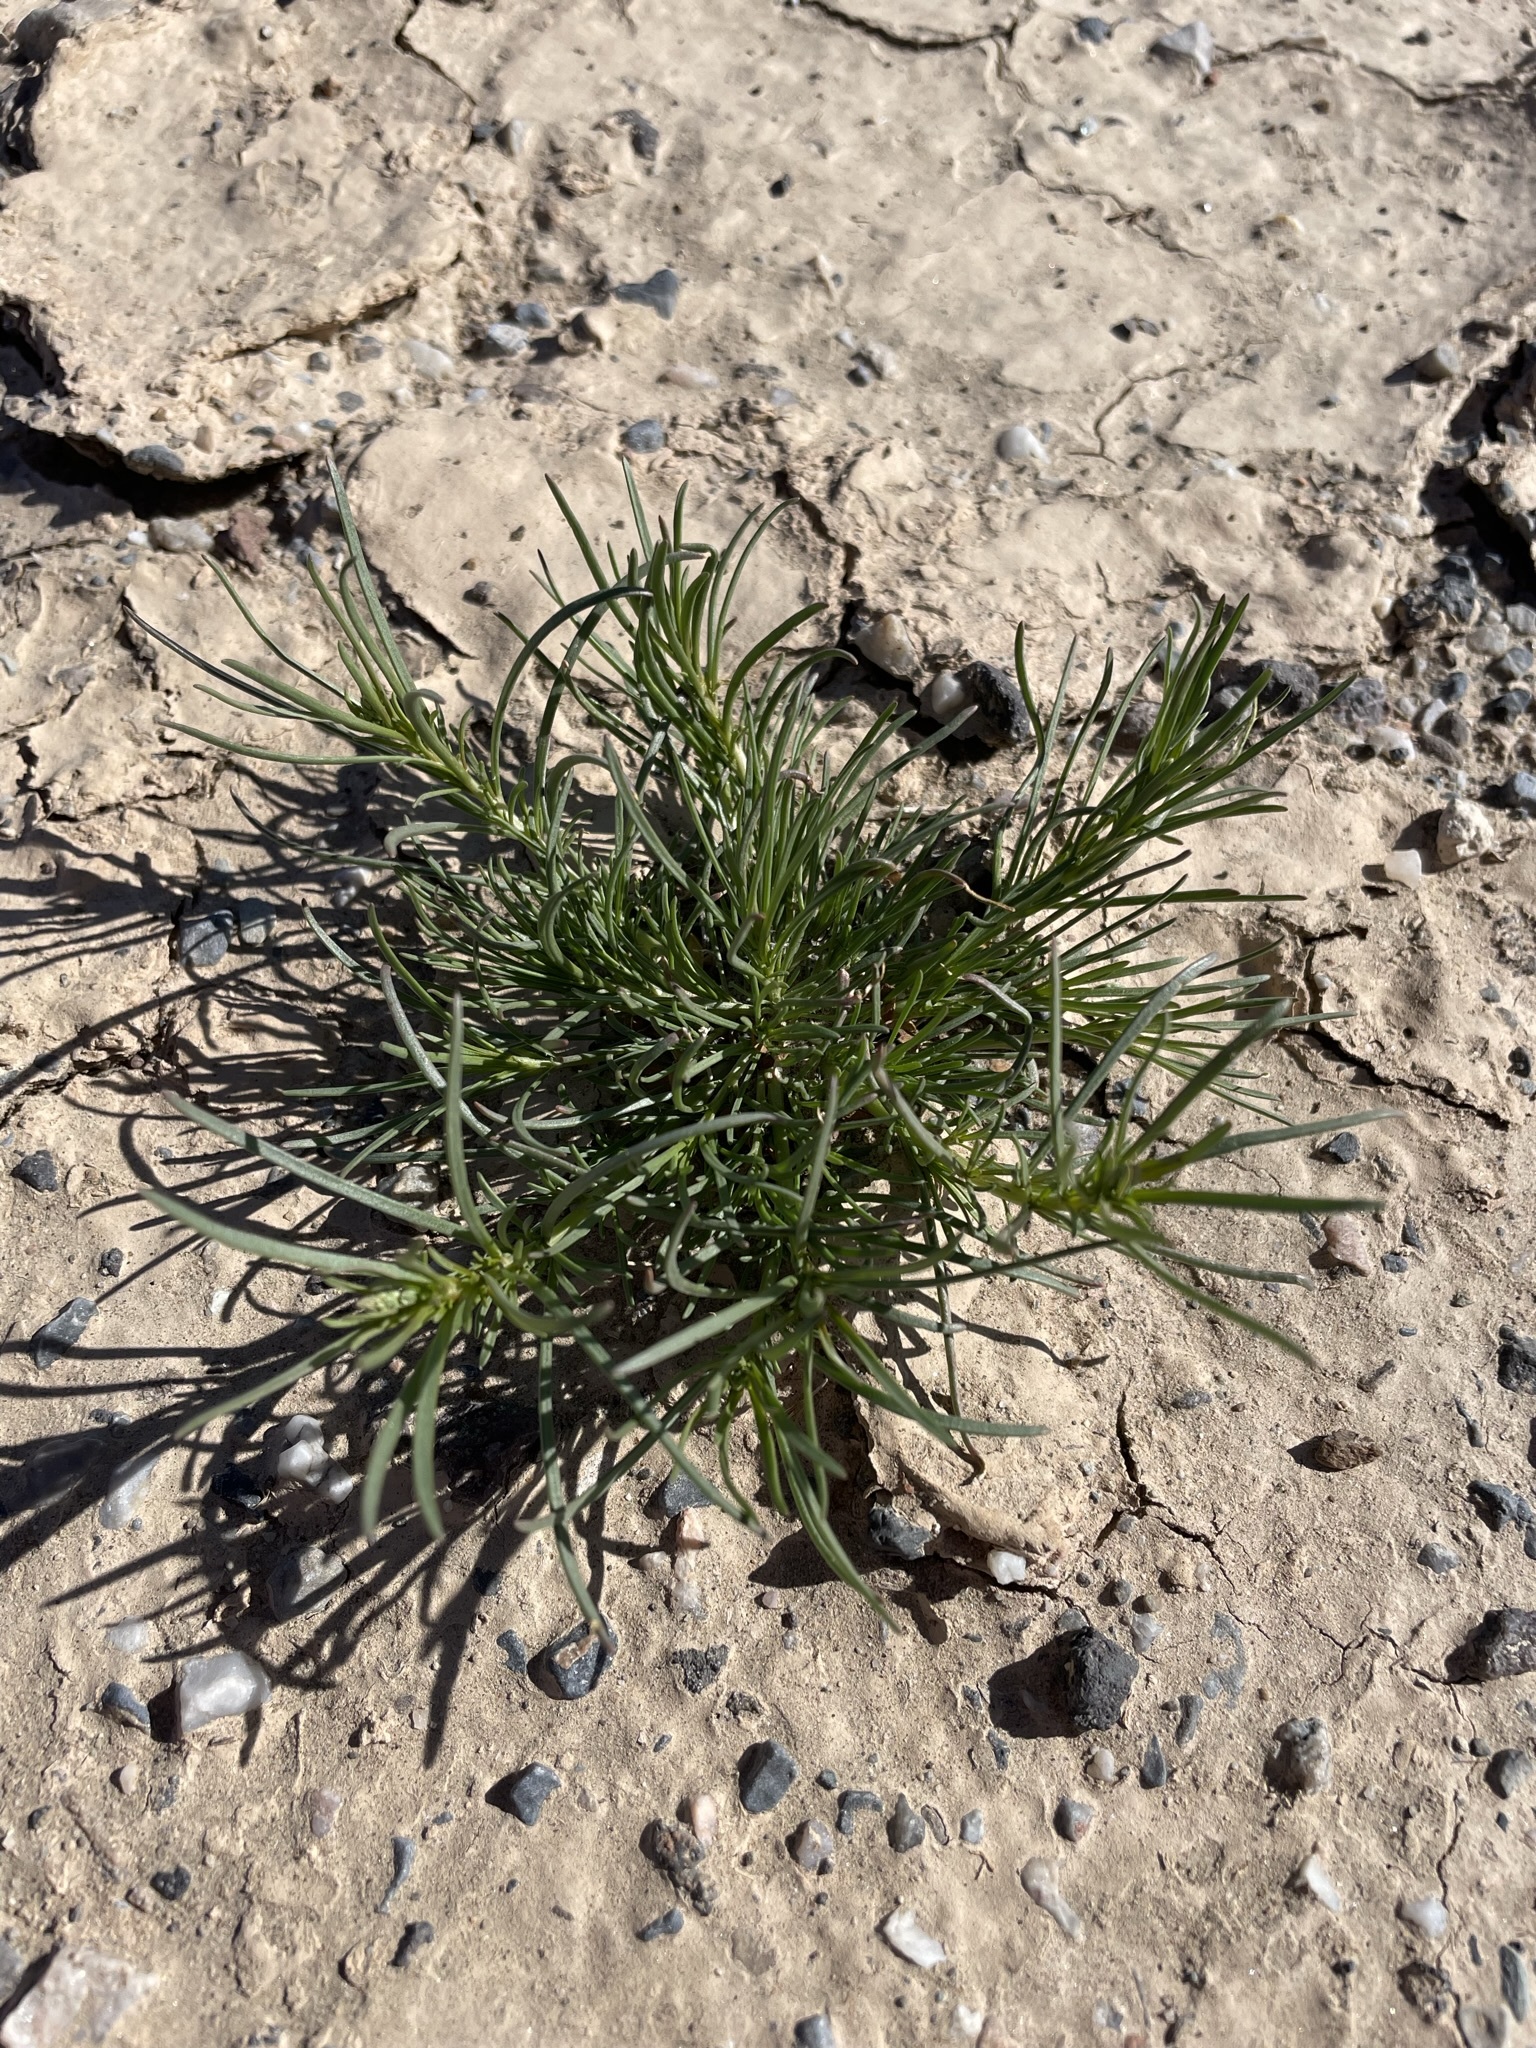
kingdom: Plantae
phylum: Tracheophyta
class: Magnoliopsida
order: Brassicales
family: Resedaceae
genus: Oligomeris
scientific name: Oligomeris linifolia
